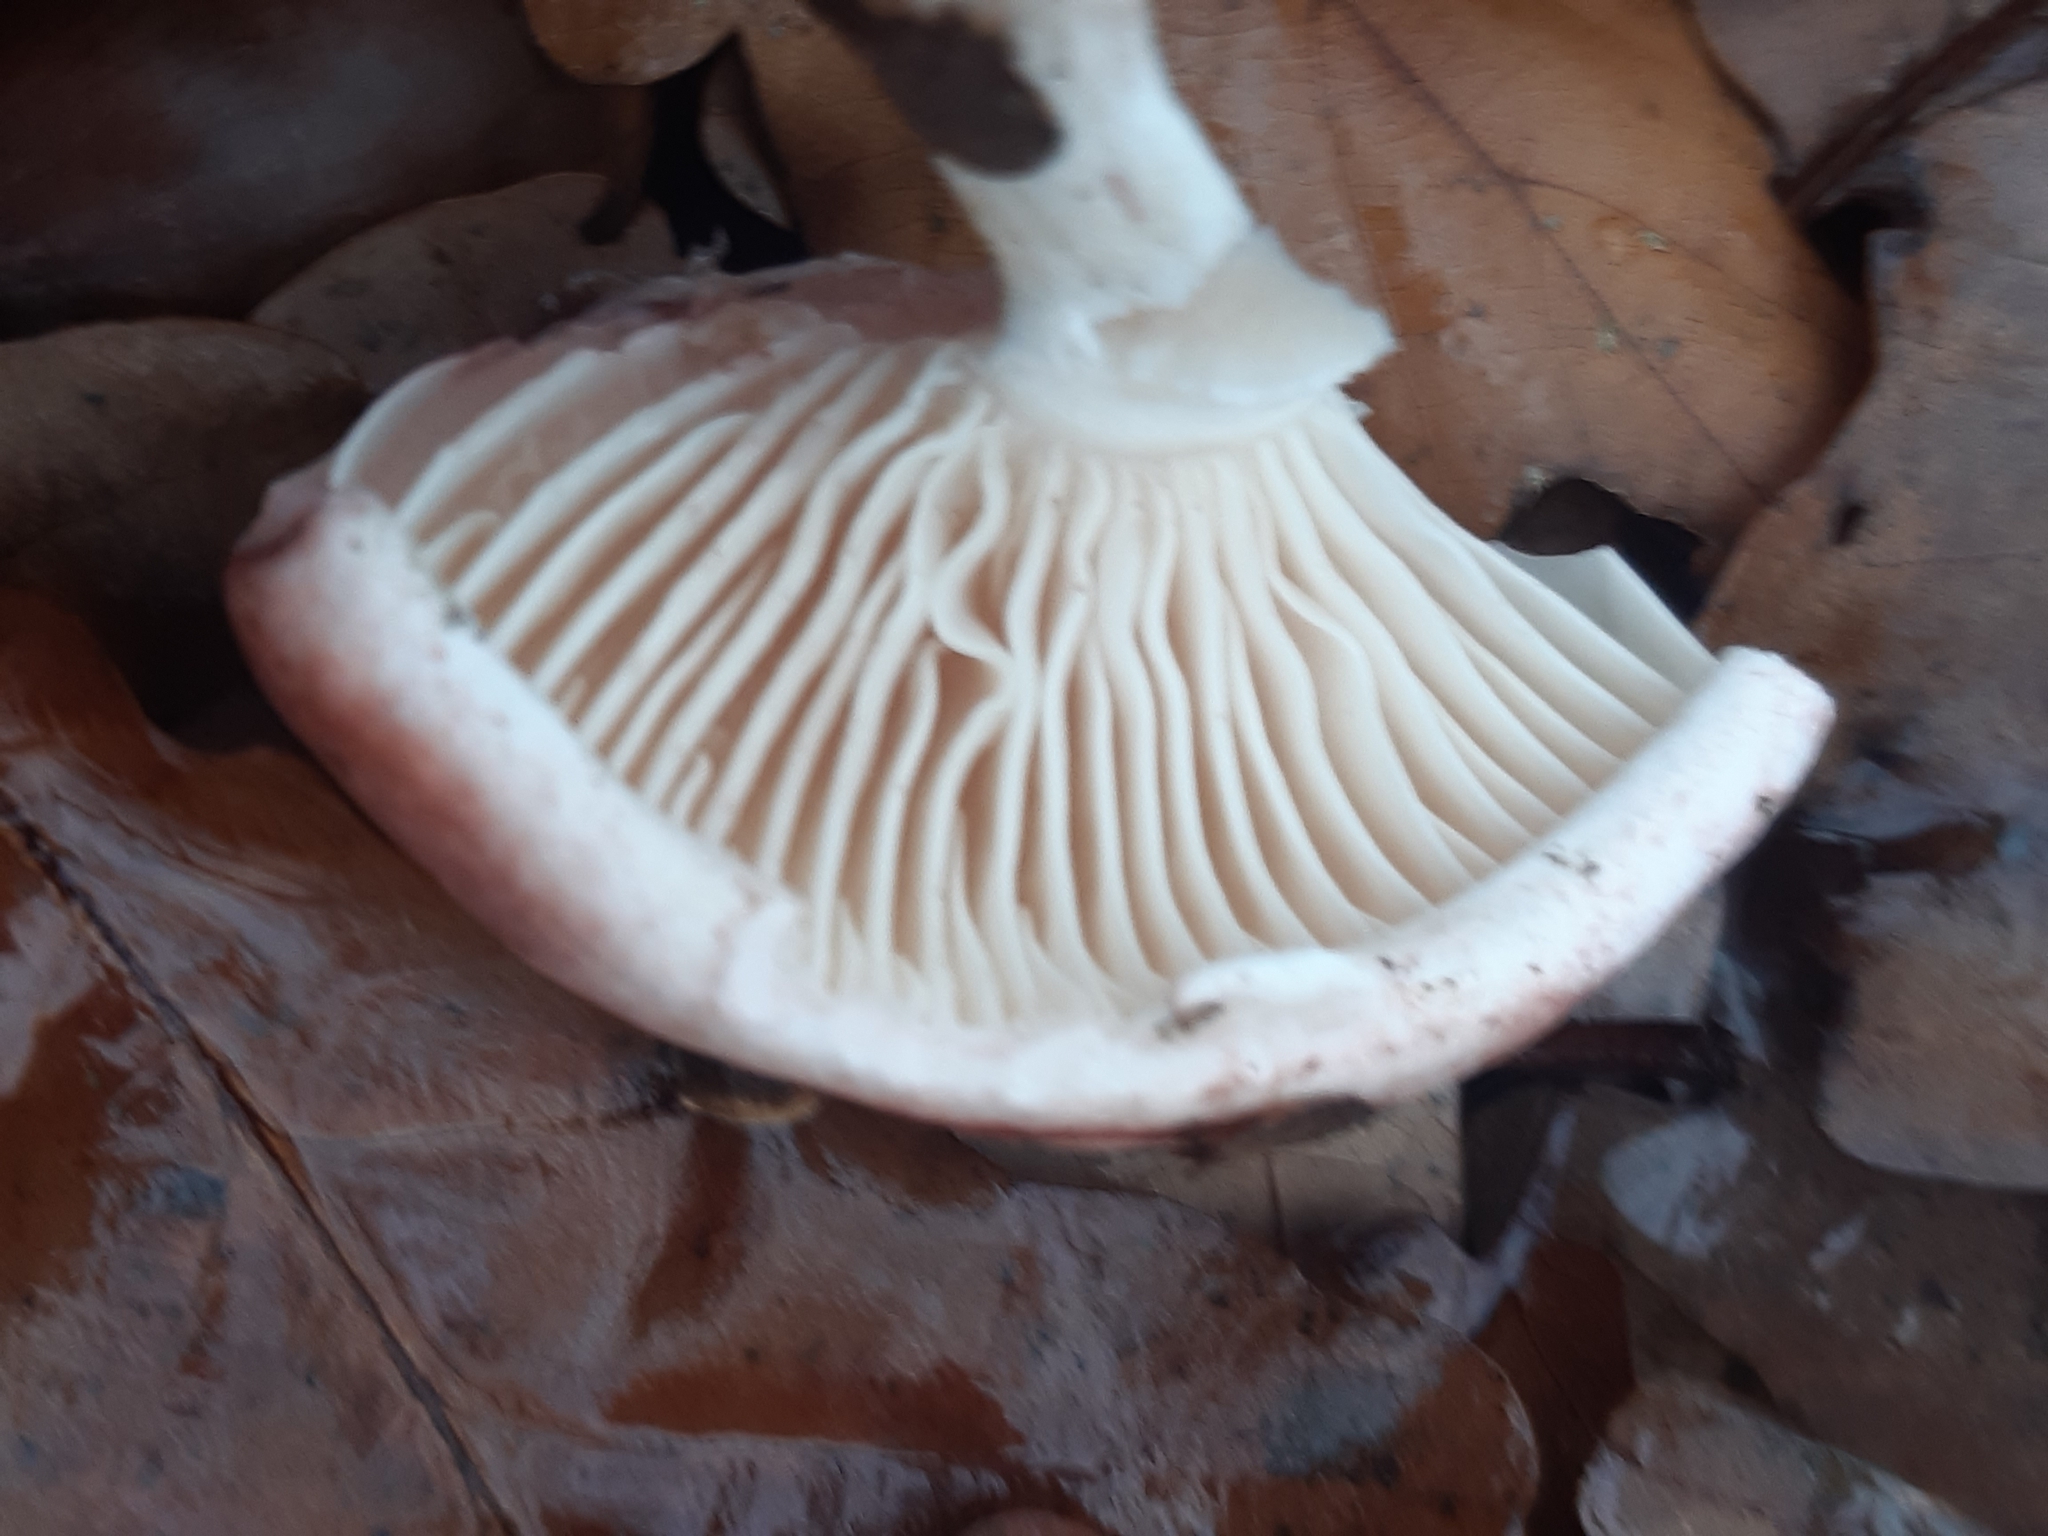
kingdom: Fungi
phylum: Basidiomycota
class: Agaricomycetes
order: Agaricales
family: Hygrophoraceae
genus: Hygrophorus
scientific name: Hygrophorus russula
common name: Pinkmottle woodwax
